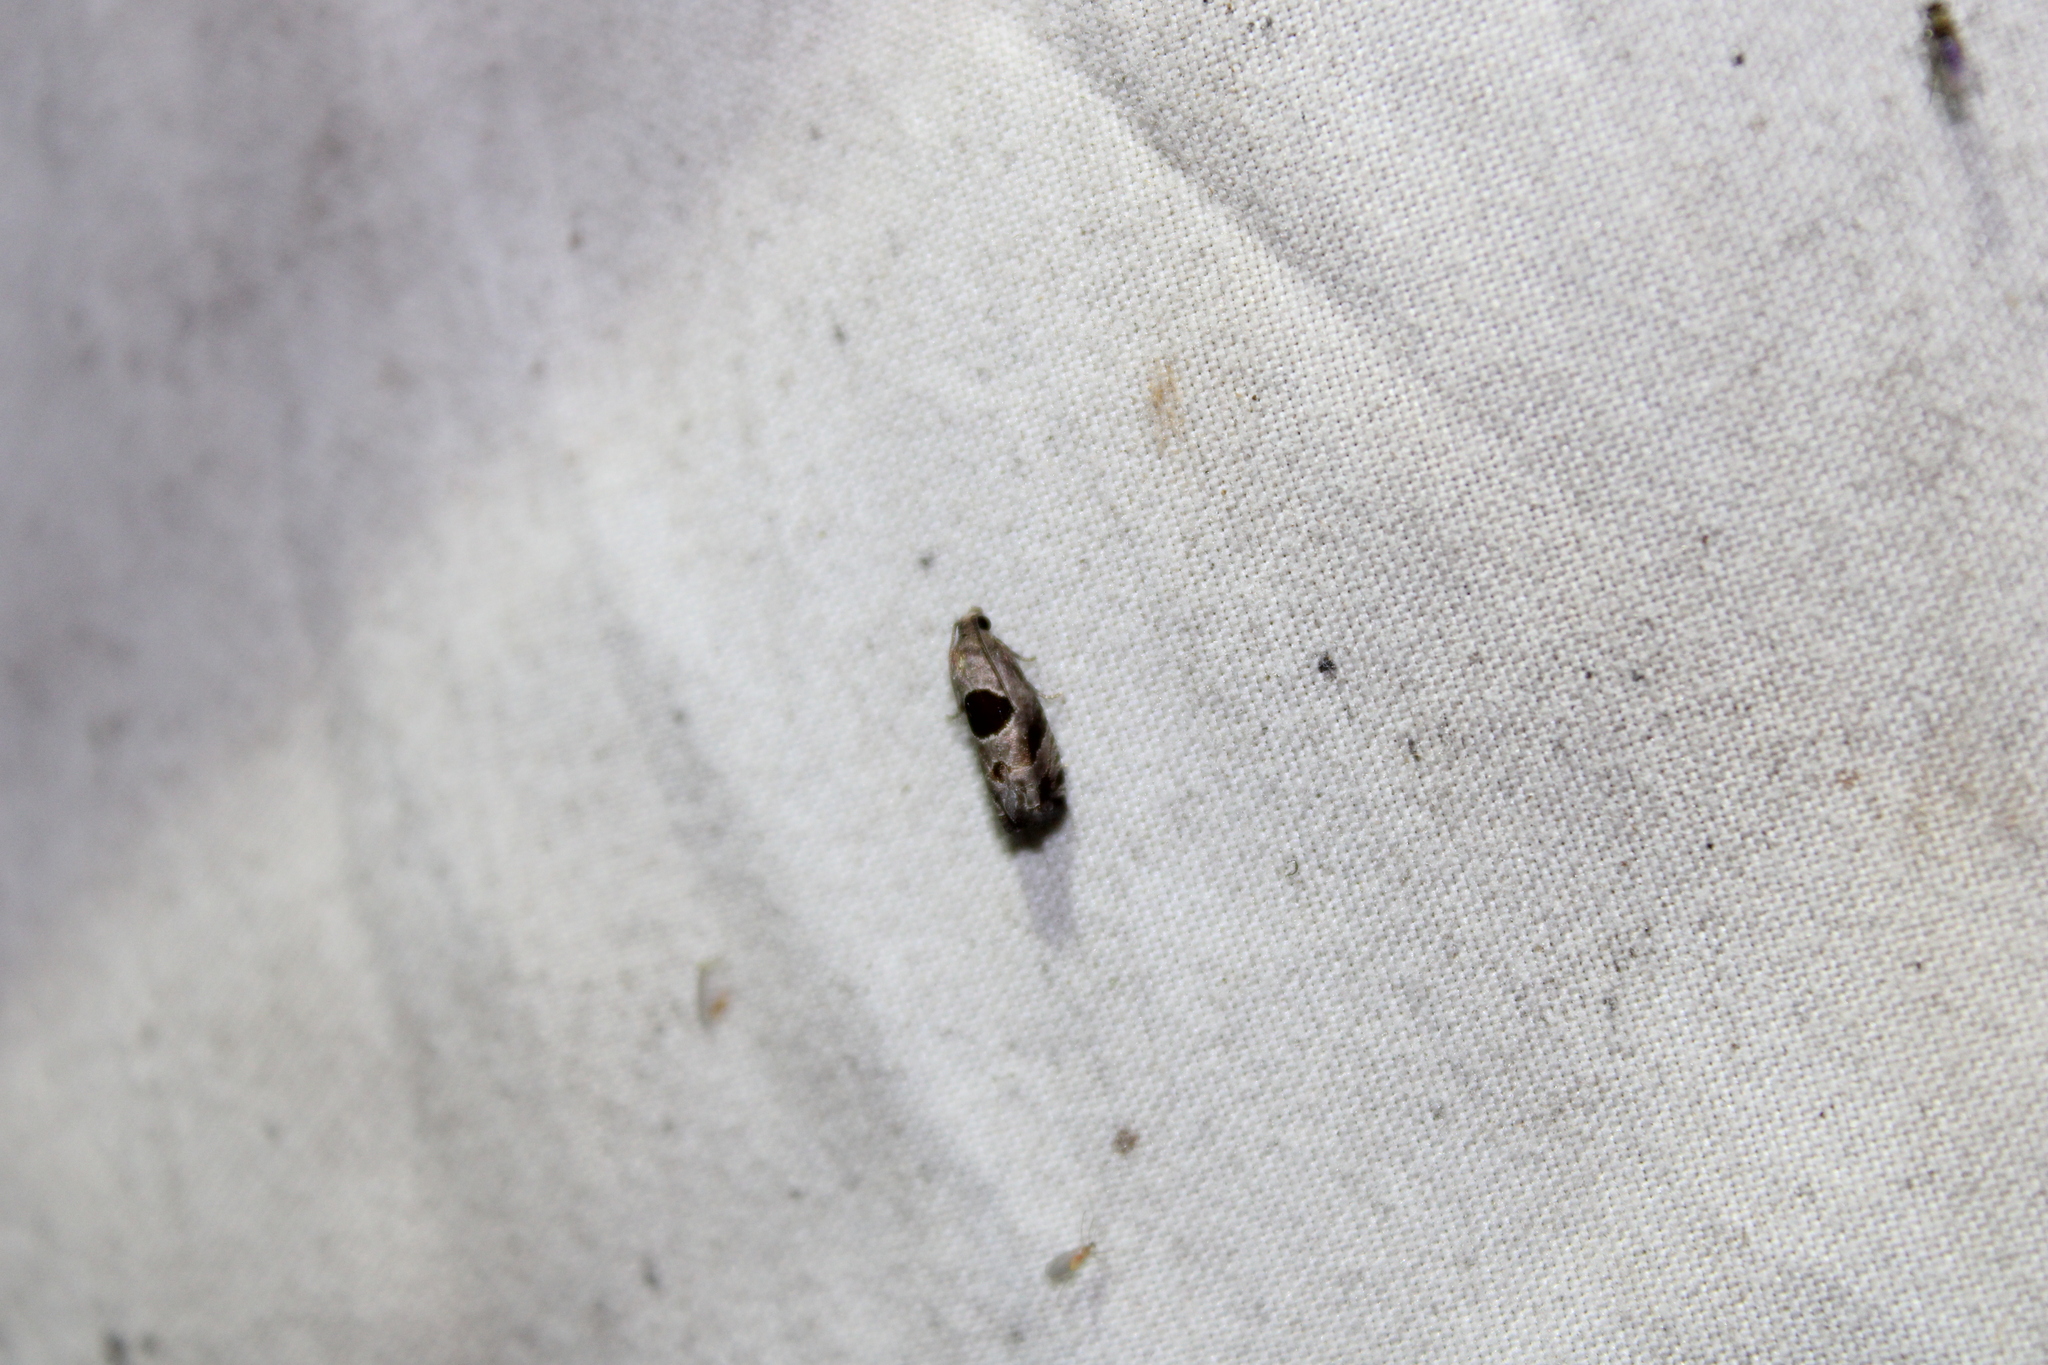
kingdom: Animalia
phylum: Arthropoda
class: Insecta
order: Lepidoptera
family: Tortricidae
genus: Epiblema
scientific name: Epiblema brightonana
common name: Brighton's epiblema moth
